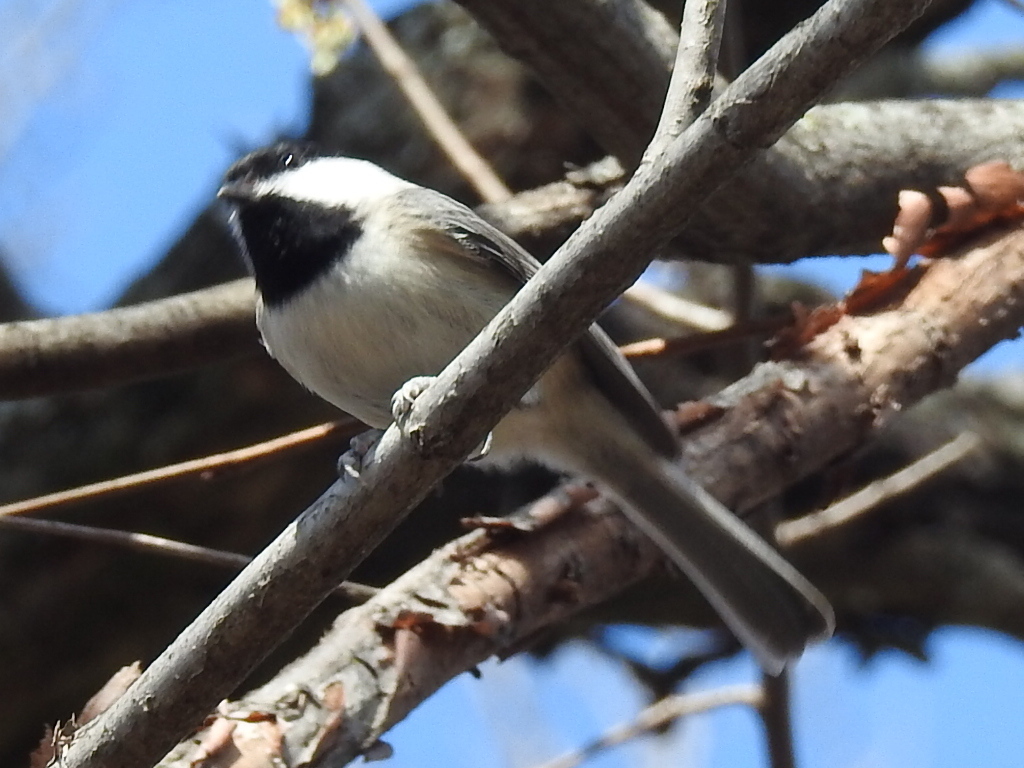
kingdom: Animalia
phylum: Chordata
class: Aves
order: Passeriformes
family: Paridae
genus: Poecile
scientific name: Poecile carolinensis
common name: Carolina chickadee
